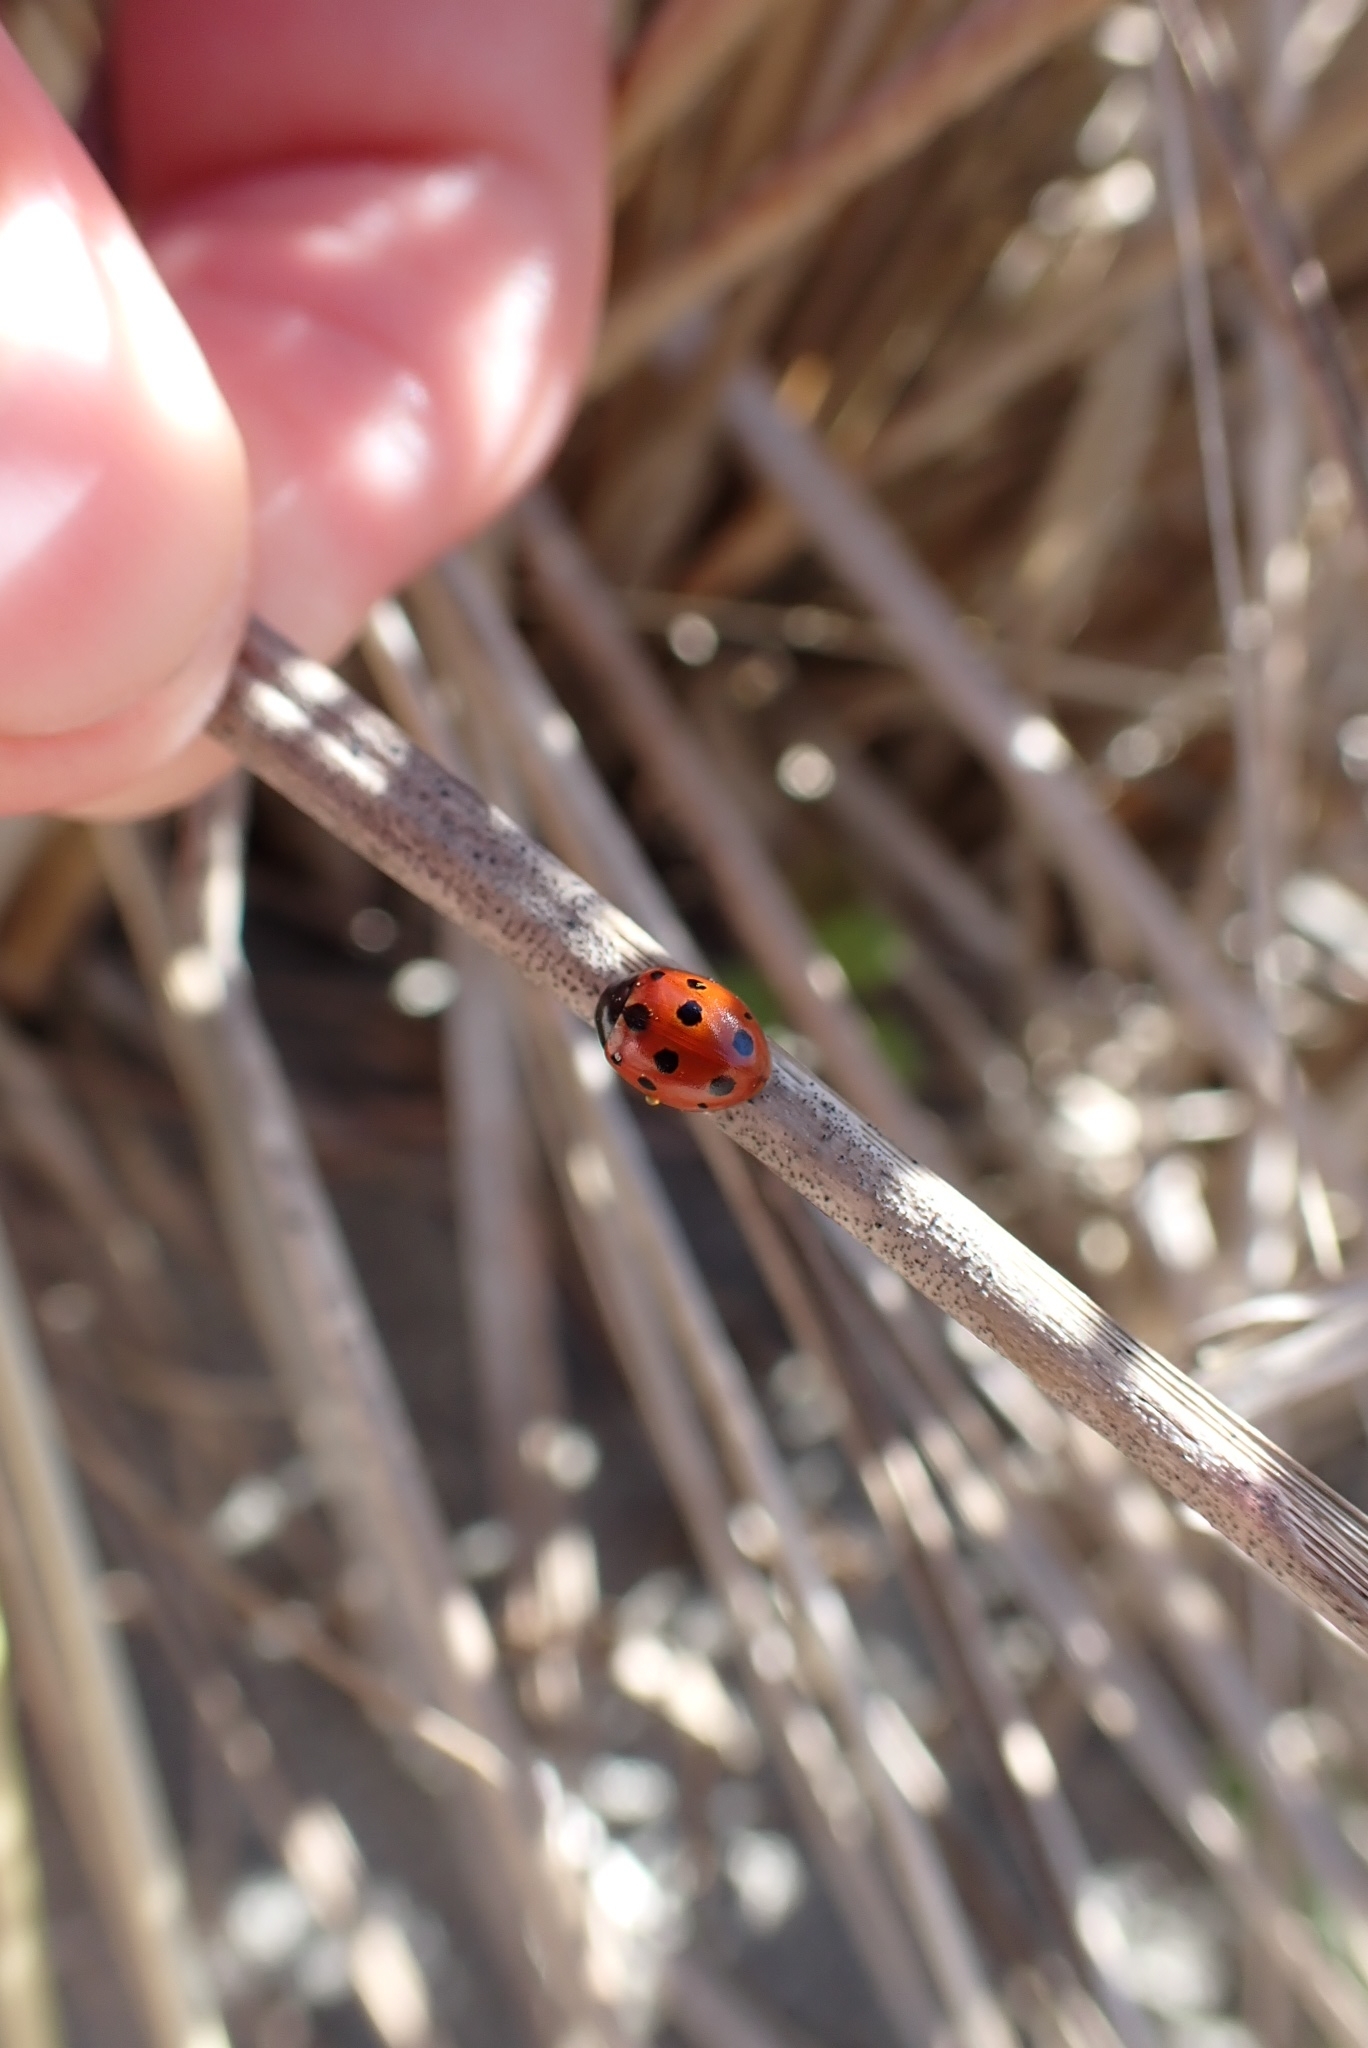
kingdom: Animalia
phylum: Arthropoda
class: Insecta
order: Coleoptera
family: Coccinellidae
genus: Coccinella
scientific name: Coccinella undecimpunctata
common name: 11-spot ladybird
